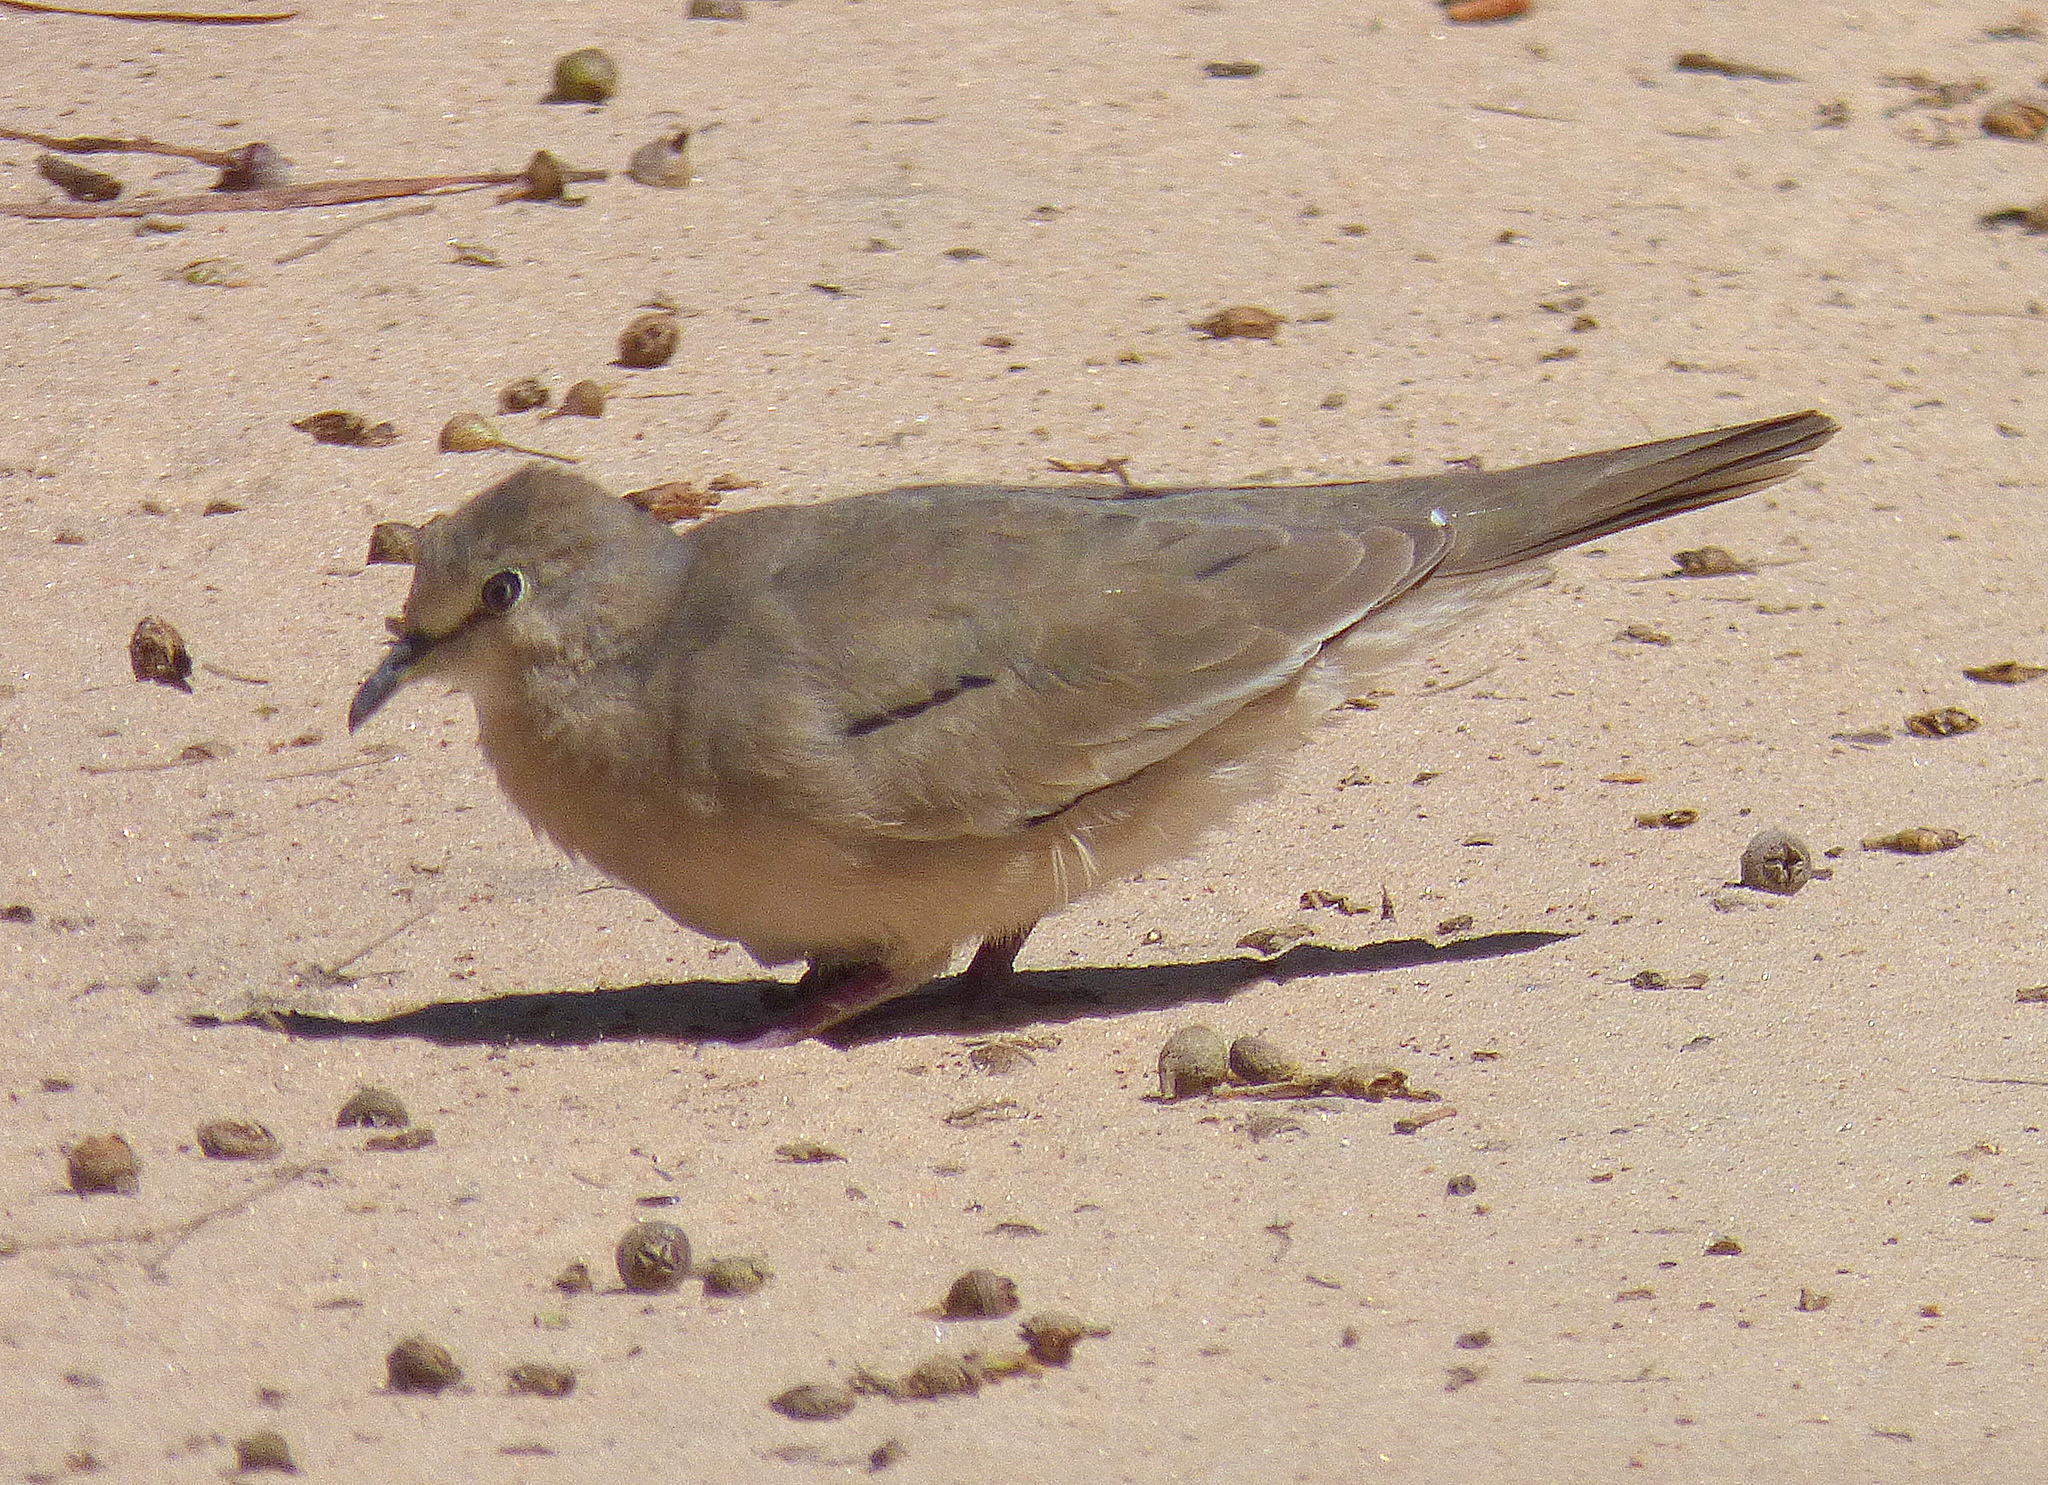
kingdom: Animalia
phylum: Chordata
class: Aves
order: Columbiformes
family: Columbidae
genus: Columbina
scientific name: Columbina picui
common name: Picui ground dove
